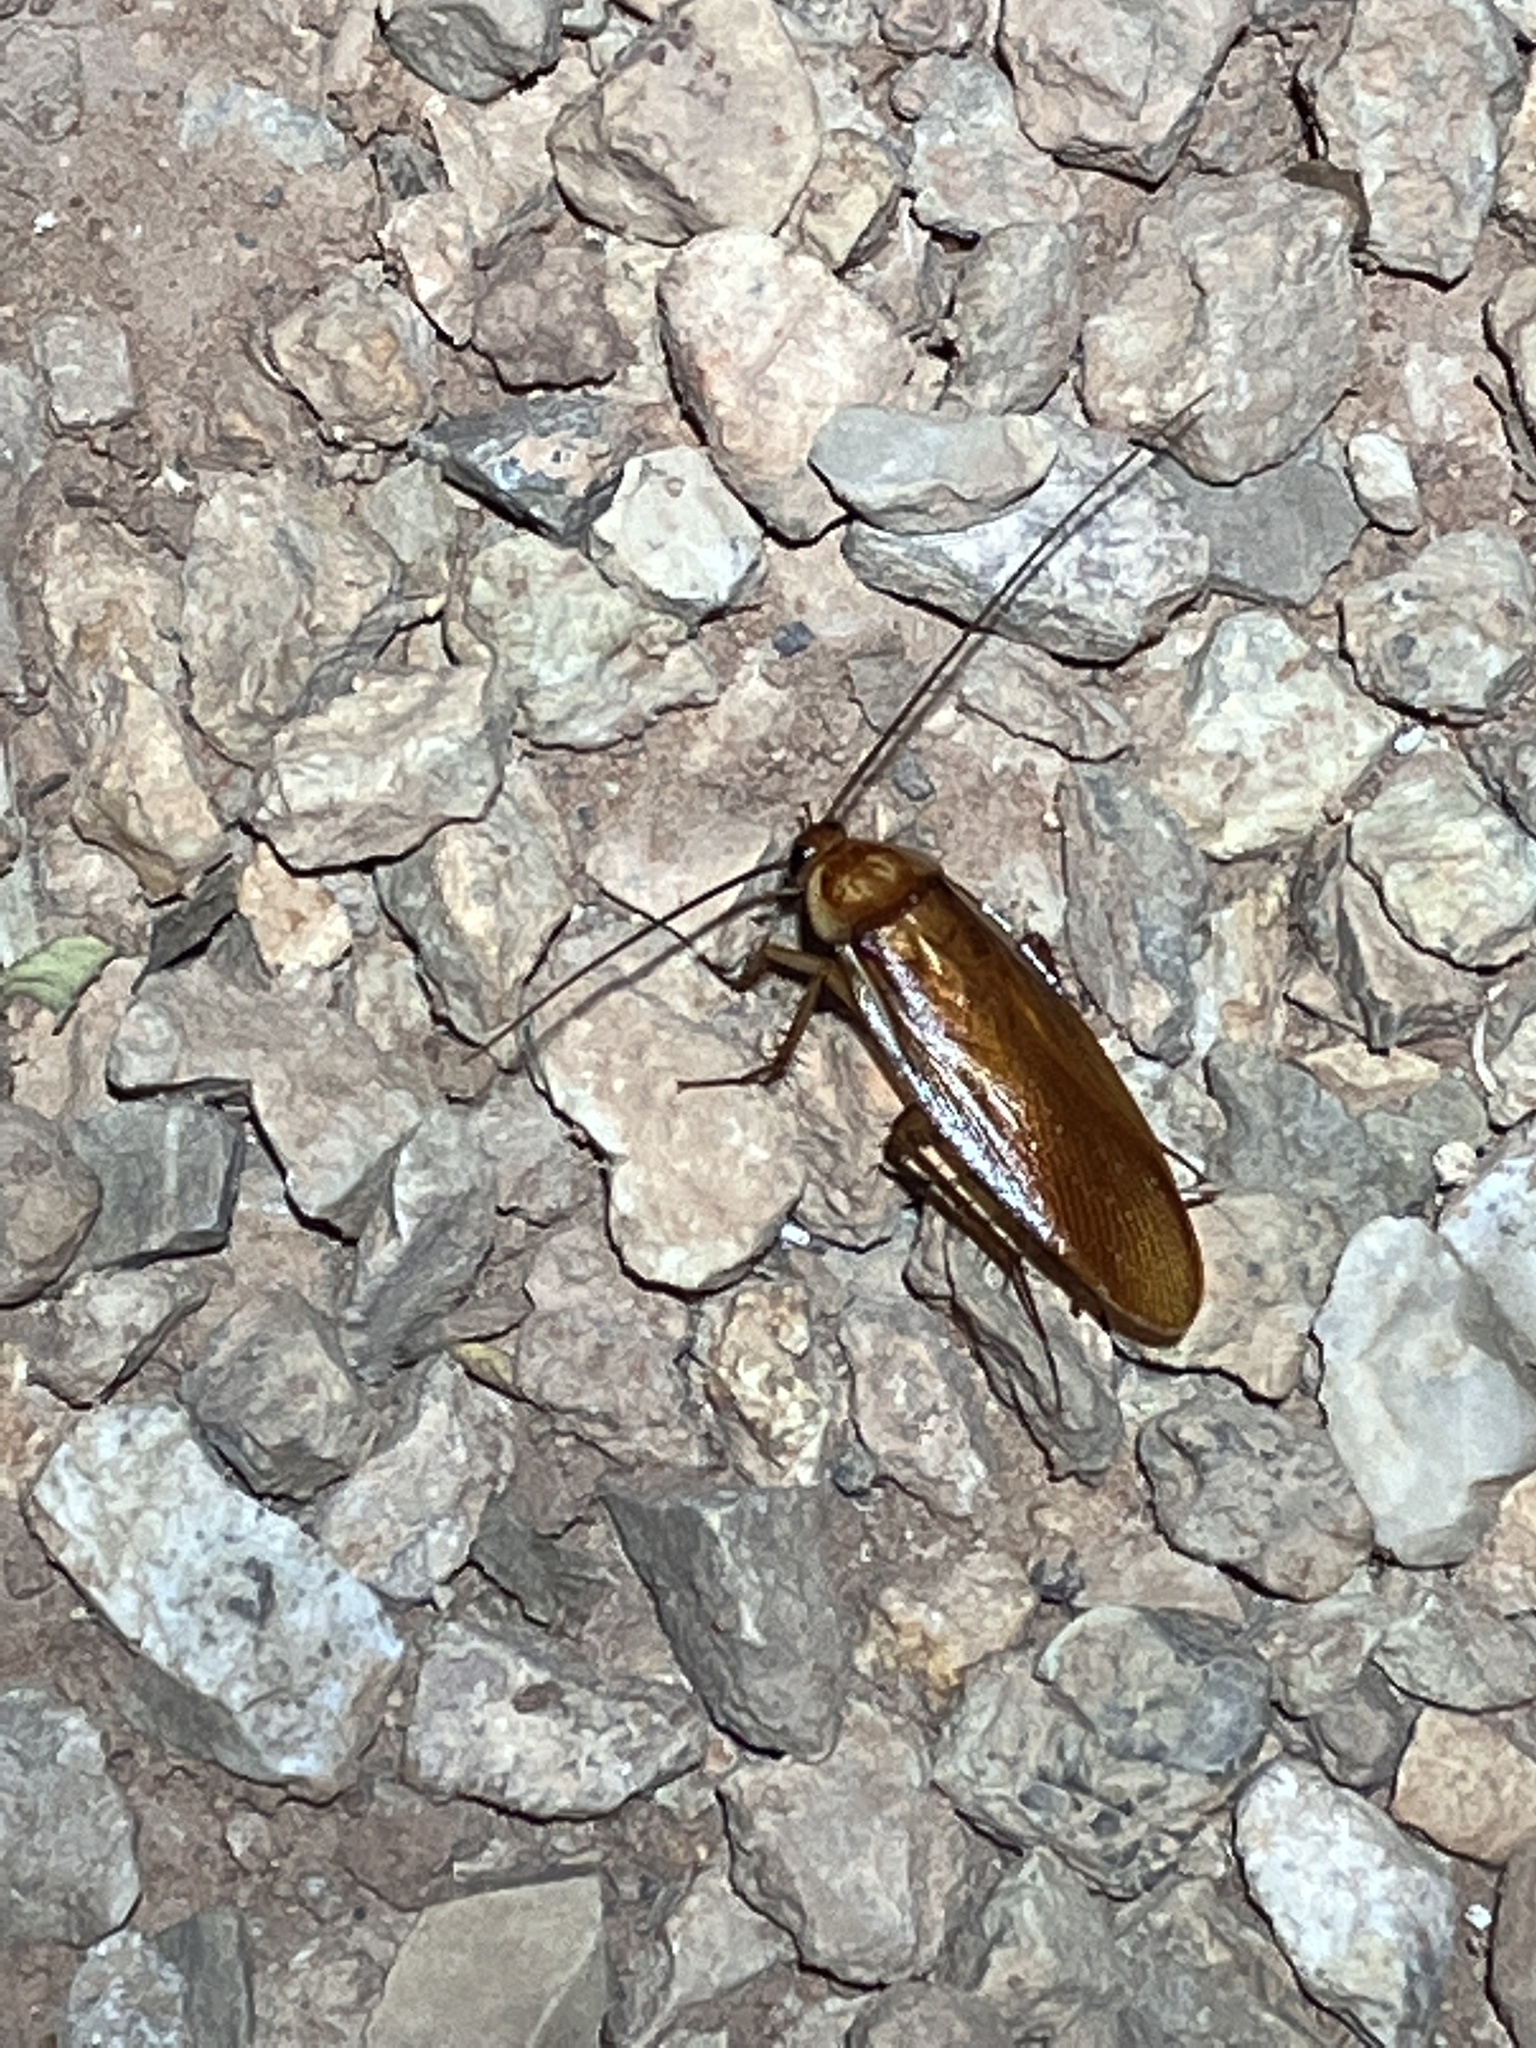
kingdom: Animalia
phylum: Arthropoda
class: Insecta
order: Blattodea
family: Blattidae
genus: Periplaneta
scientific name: Periplaneta lateralis
